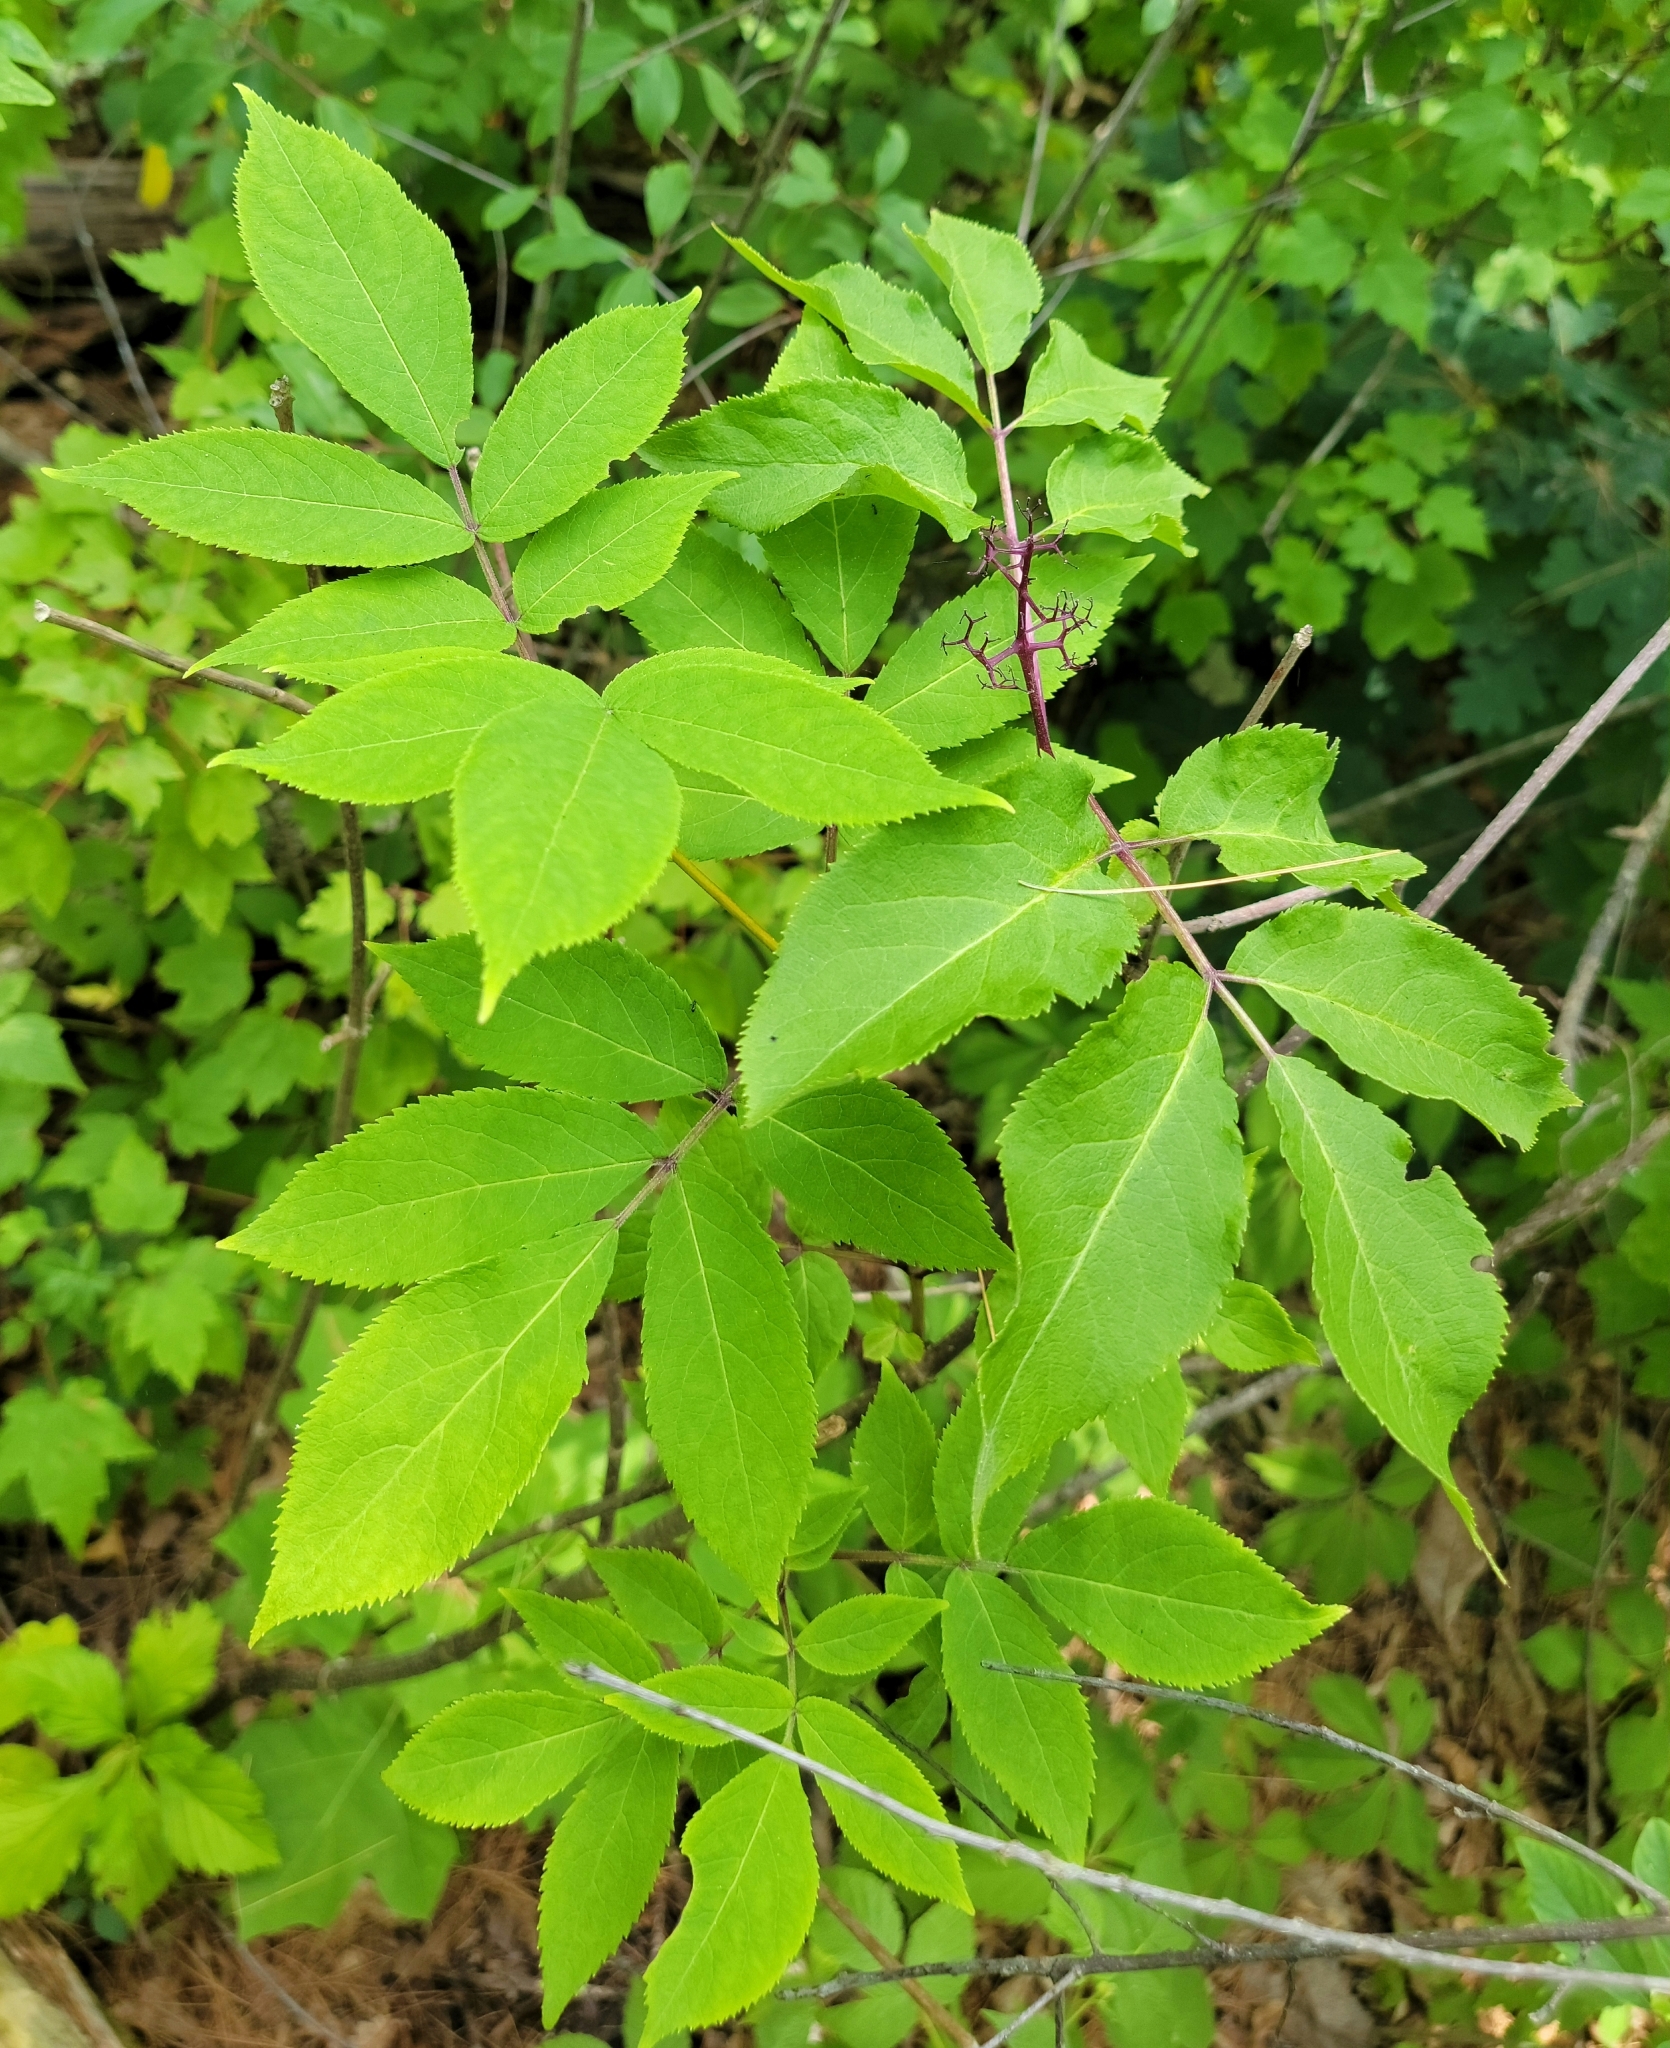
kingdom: Plantae
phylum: Tracheophyta
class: Magnoliopsida
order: Dipsacales
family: Viburnaceae
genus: Sambucus
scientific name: Sambucus racemosa
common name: Red-berried elder
